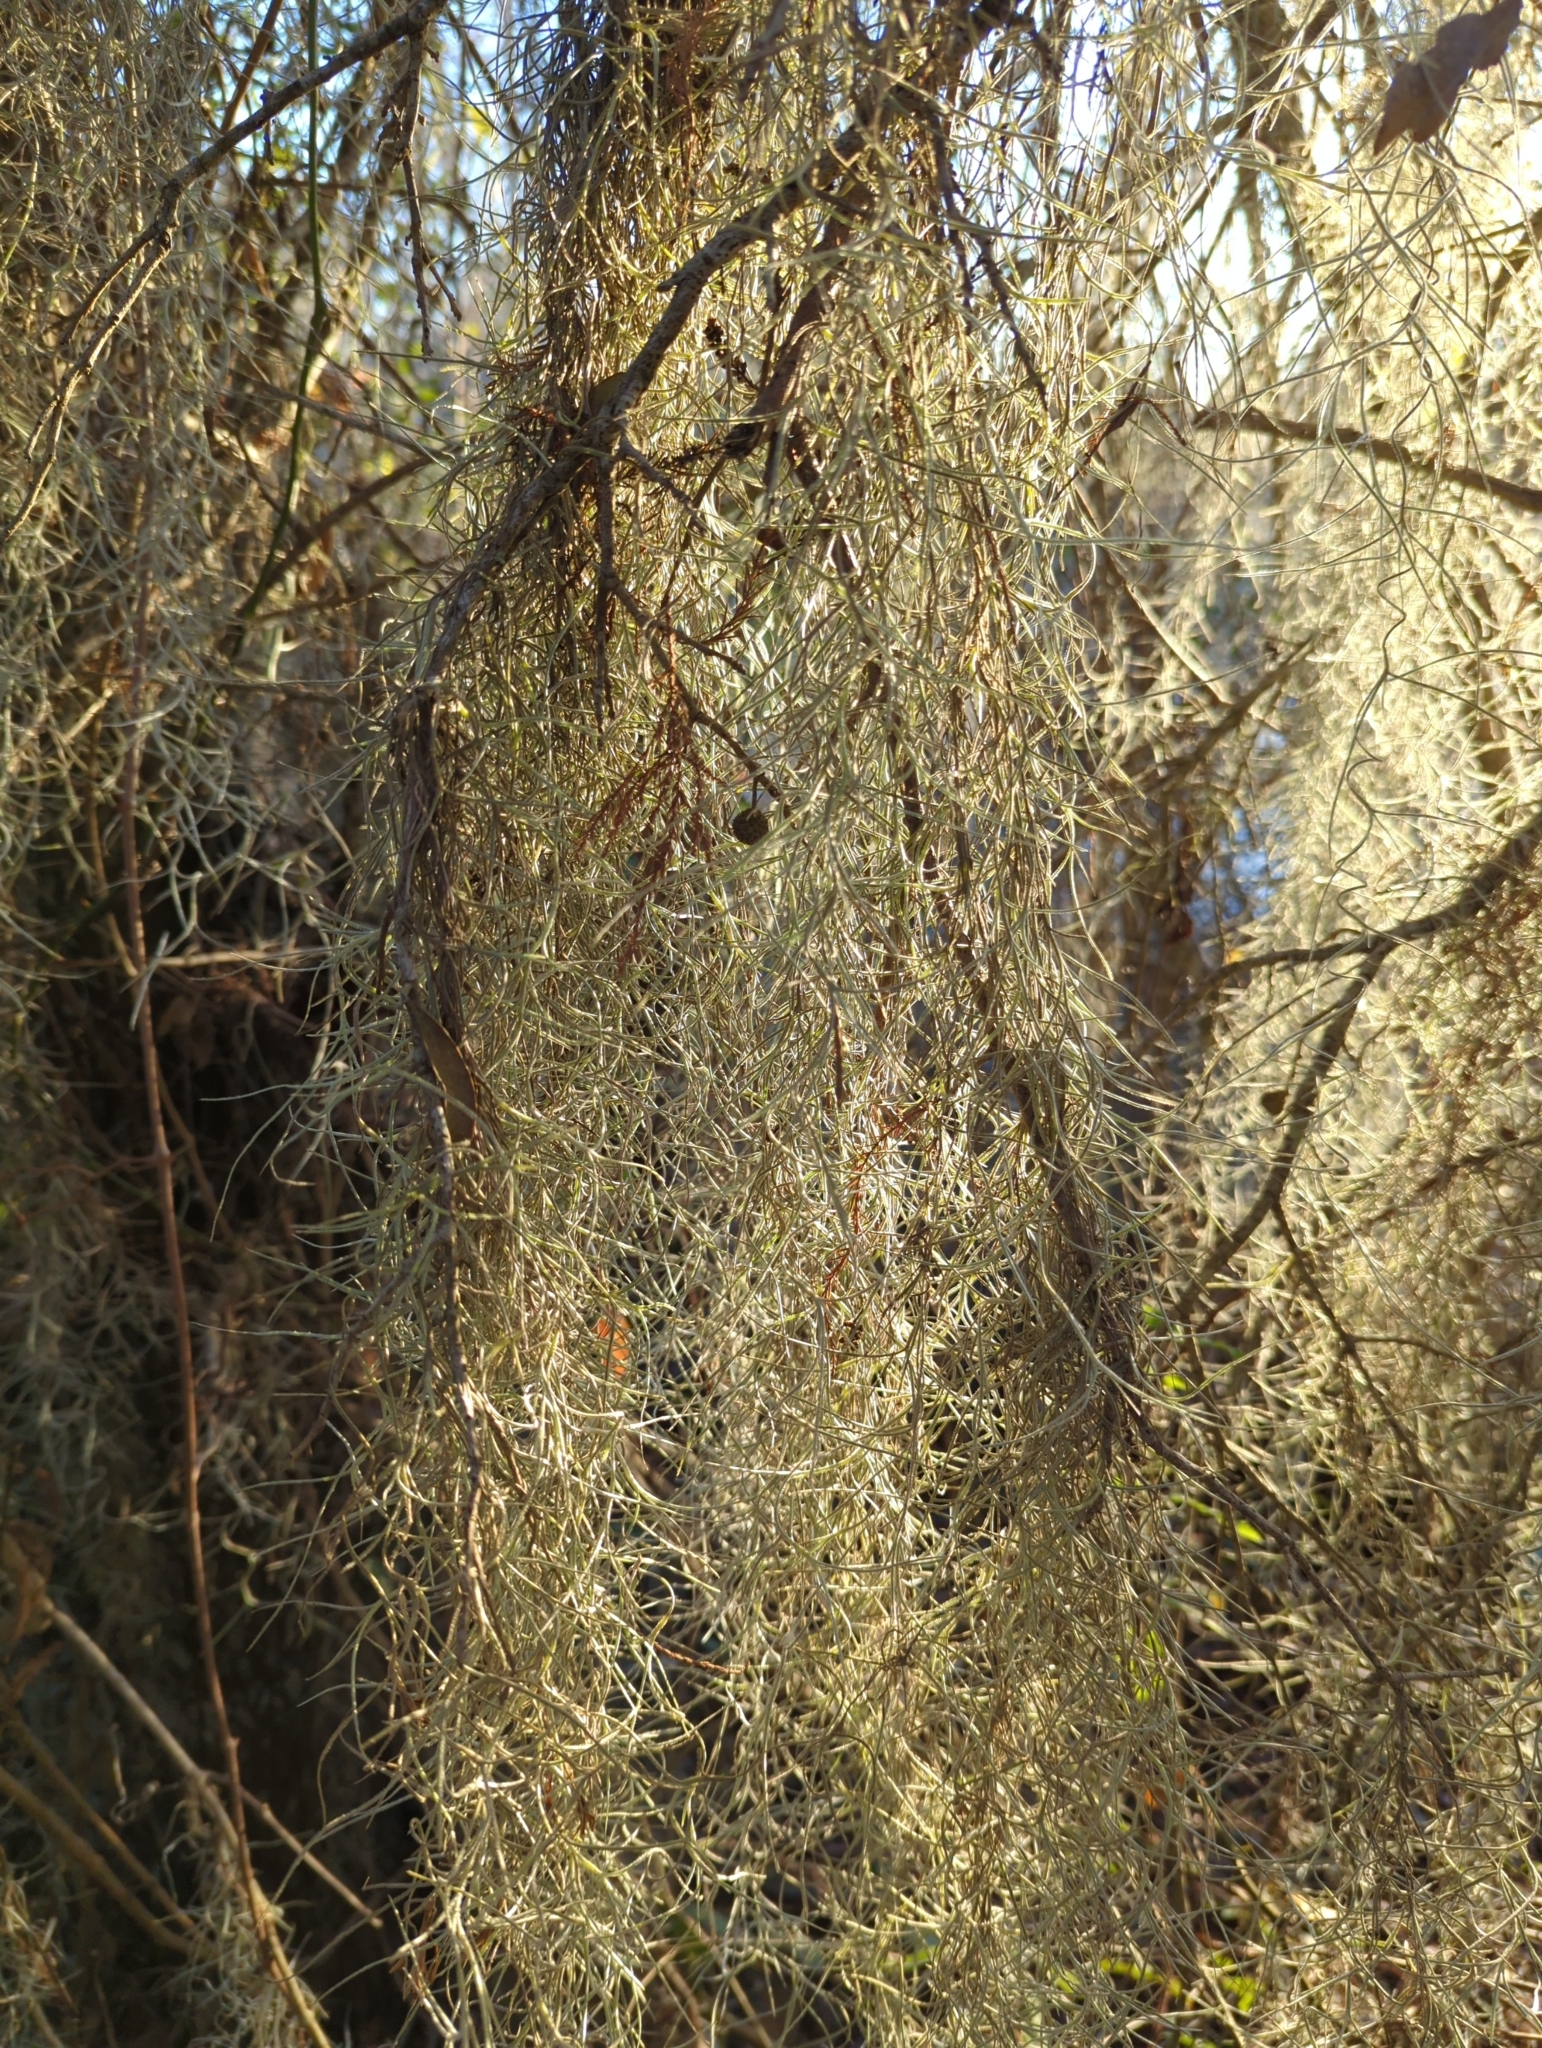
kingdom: Plantae
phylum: Tracheophyta
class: Liliopsida
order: Poales
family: Bromeliaceae
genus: Tillandsia
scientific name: Tillandsia usneoides
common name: Spanish moss
